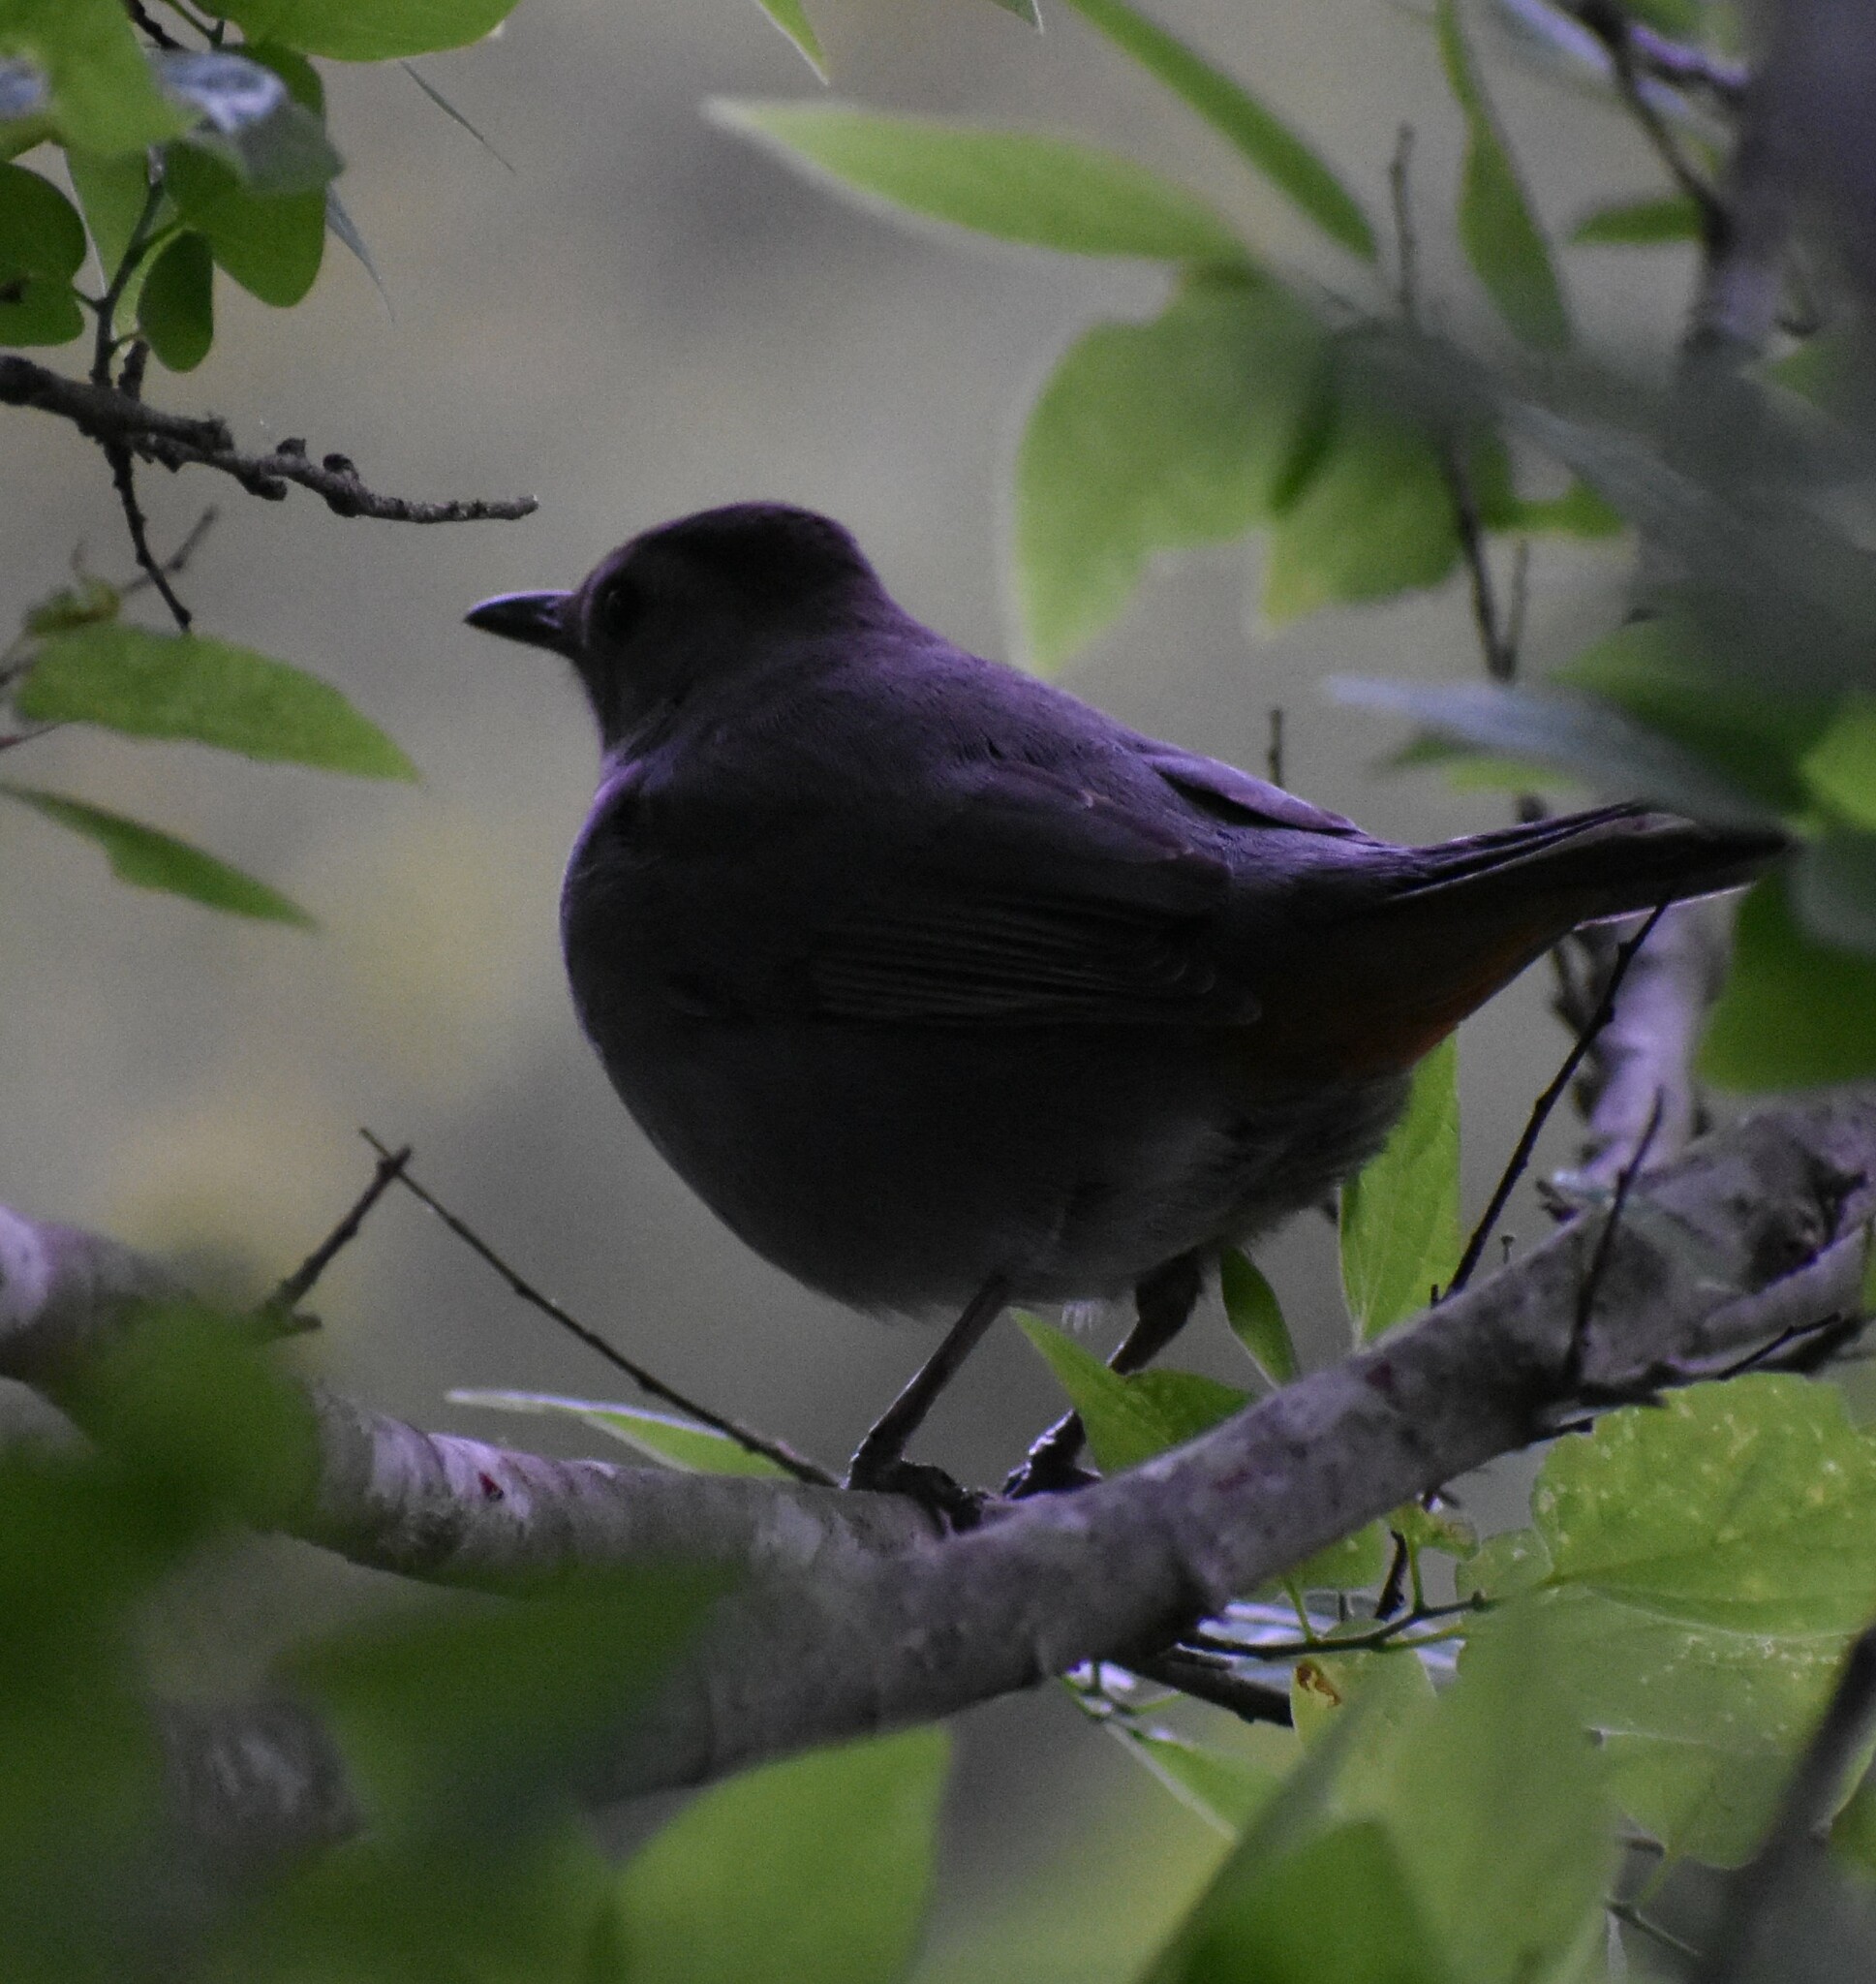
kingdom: Animalia
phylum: Chordata
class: Aves
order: Passeriformes
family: Mimidae
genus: Dumetella
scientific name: Dumetella carolinensis
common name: Gray catbird
